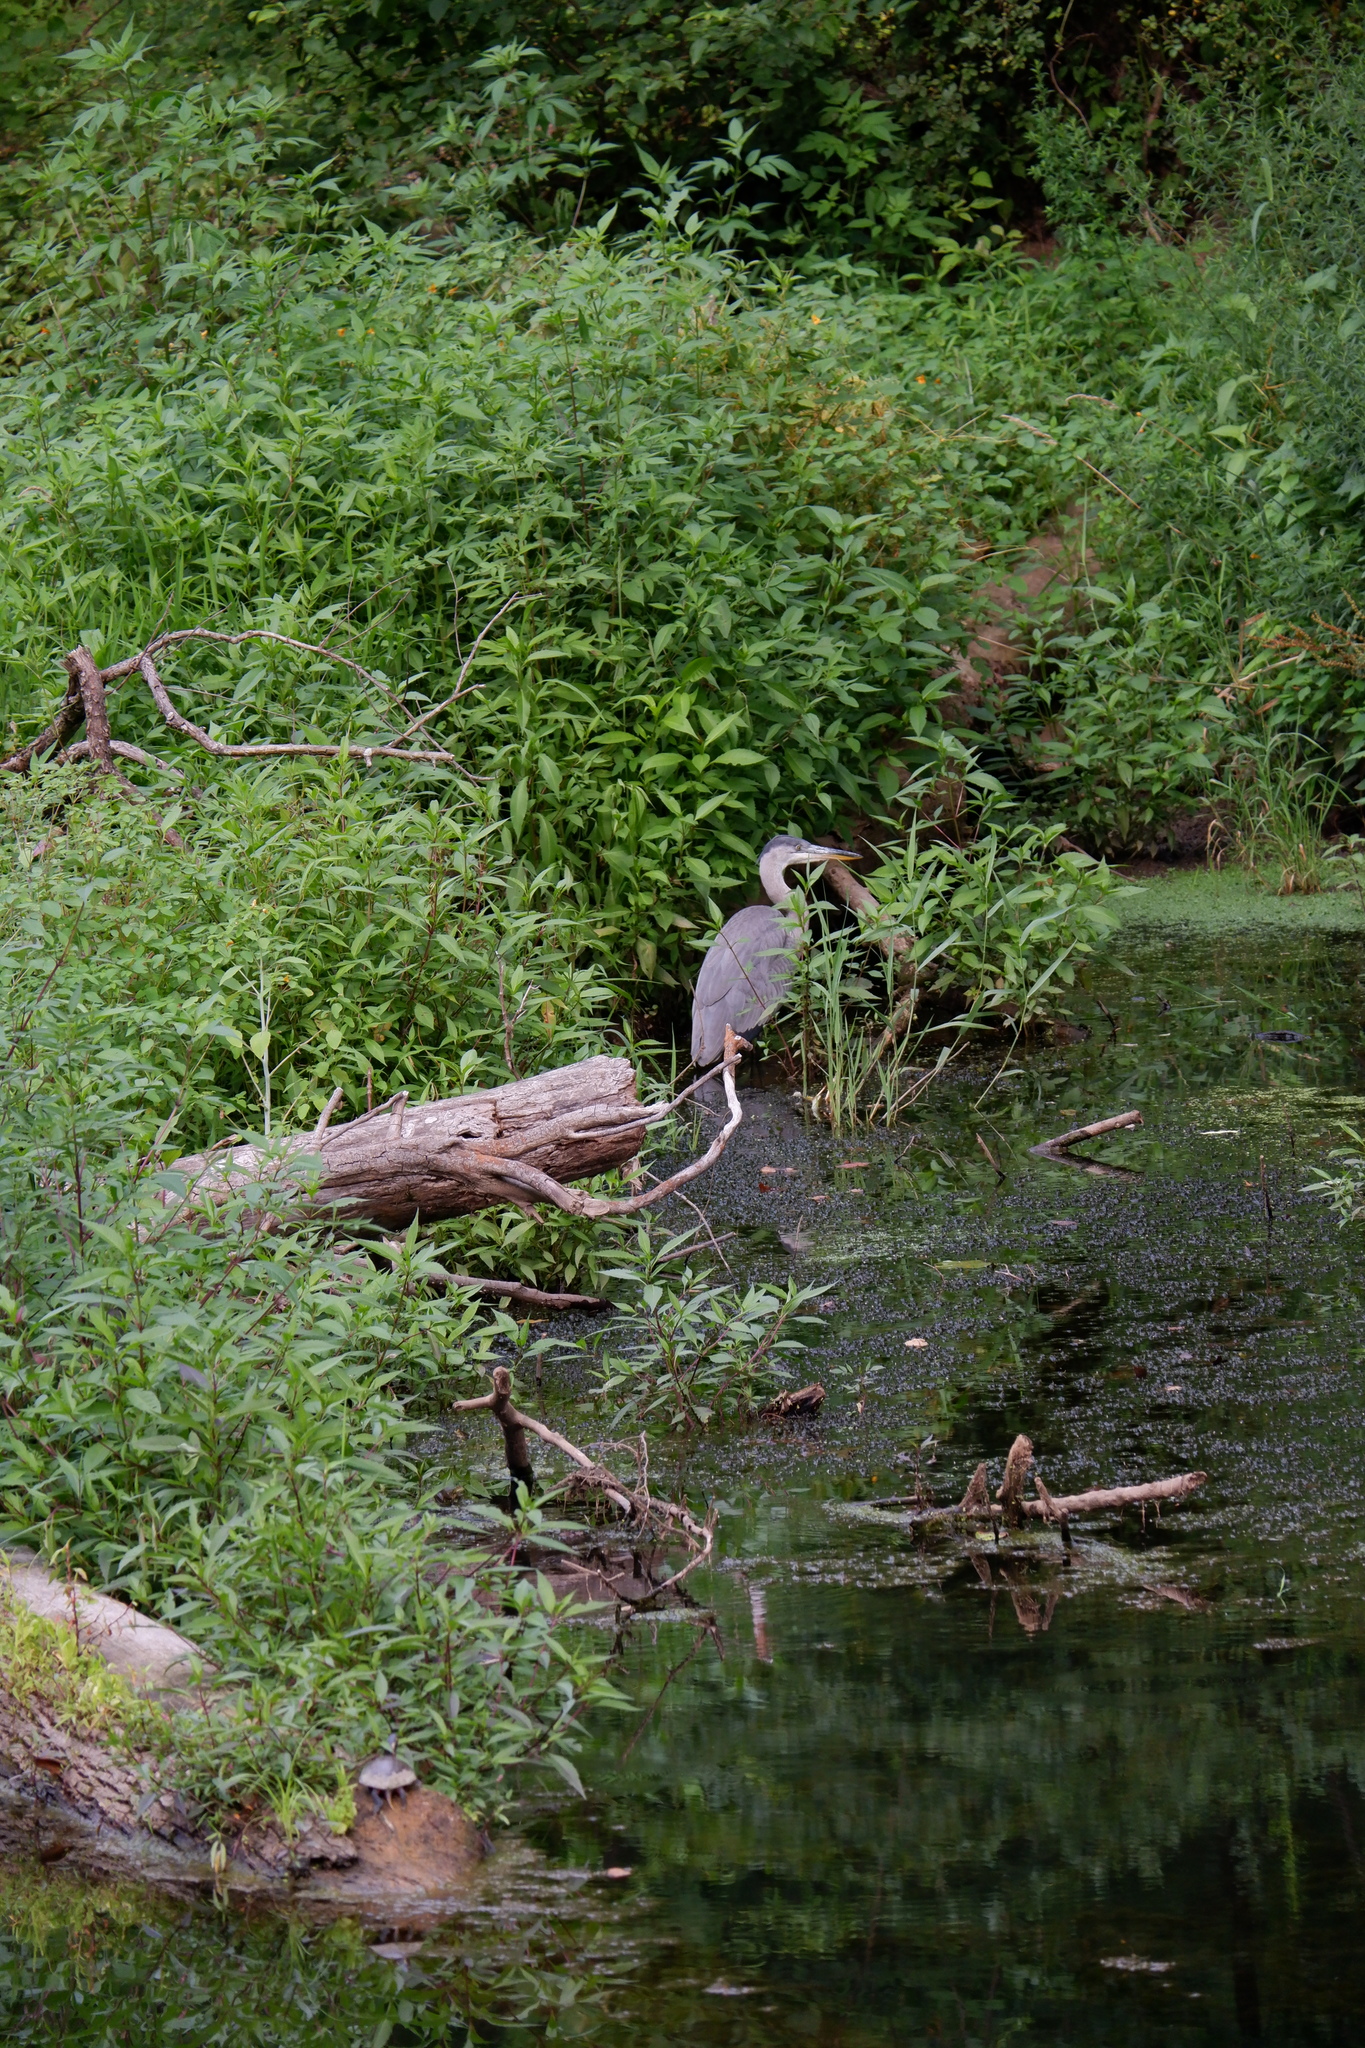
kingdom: Animalia
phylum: Chordata
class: Aves
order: Pelecaniformes
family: Ardeidae
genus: Ardea
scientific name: Ardea herodias
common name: Great blue heron
